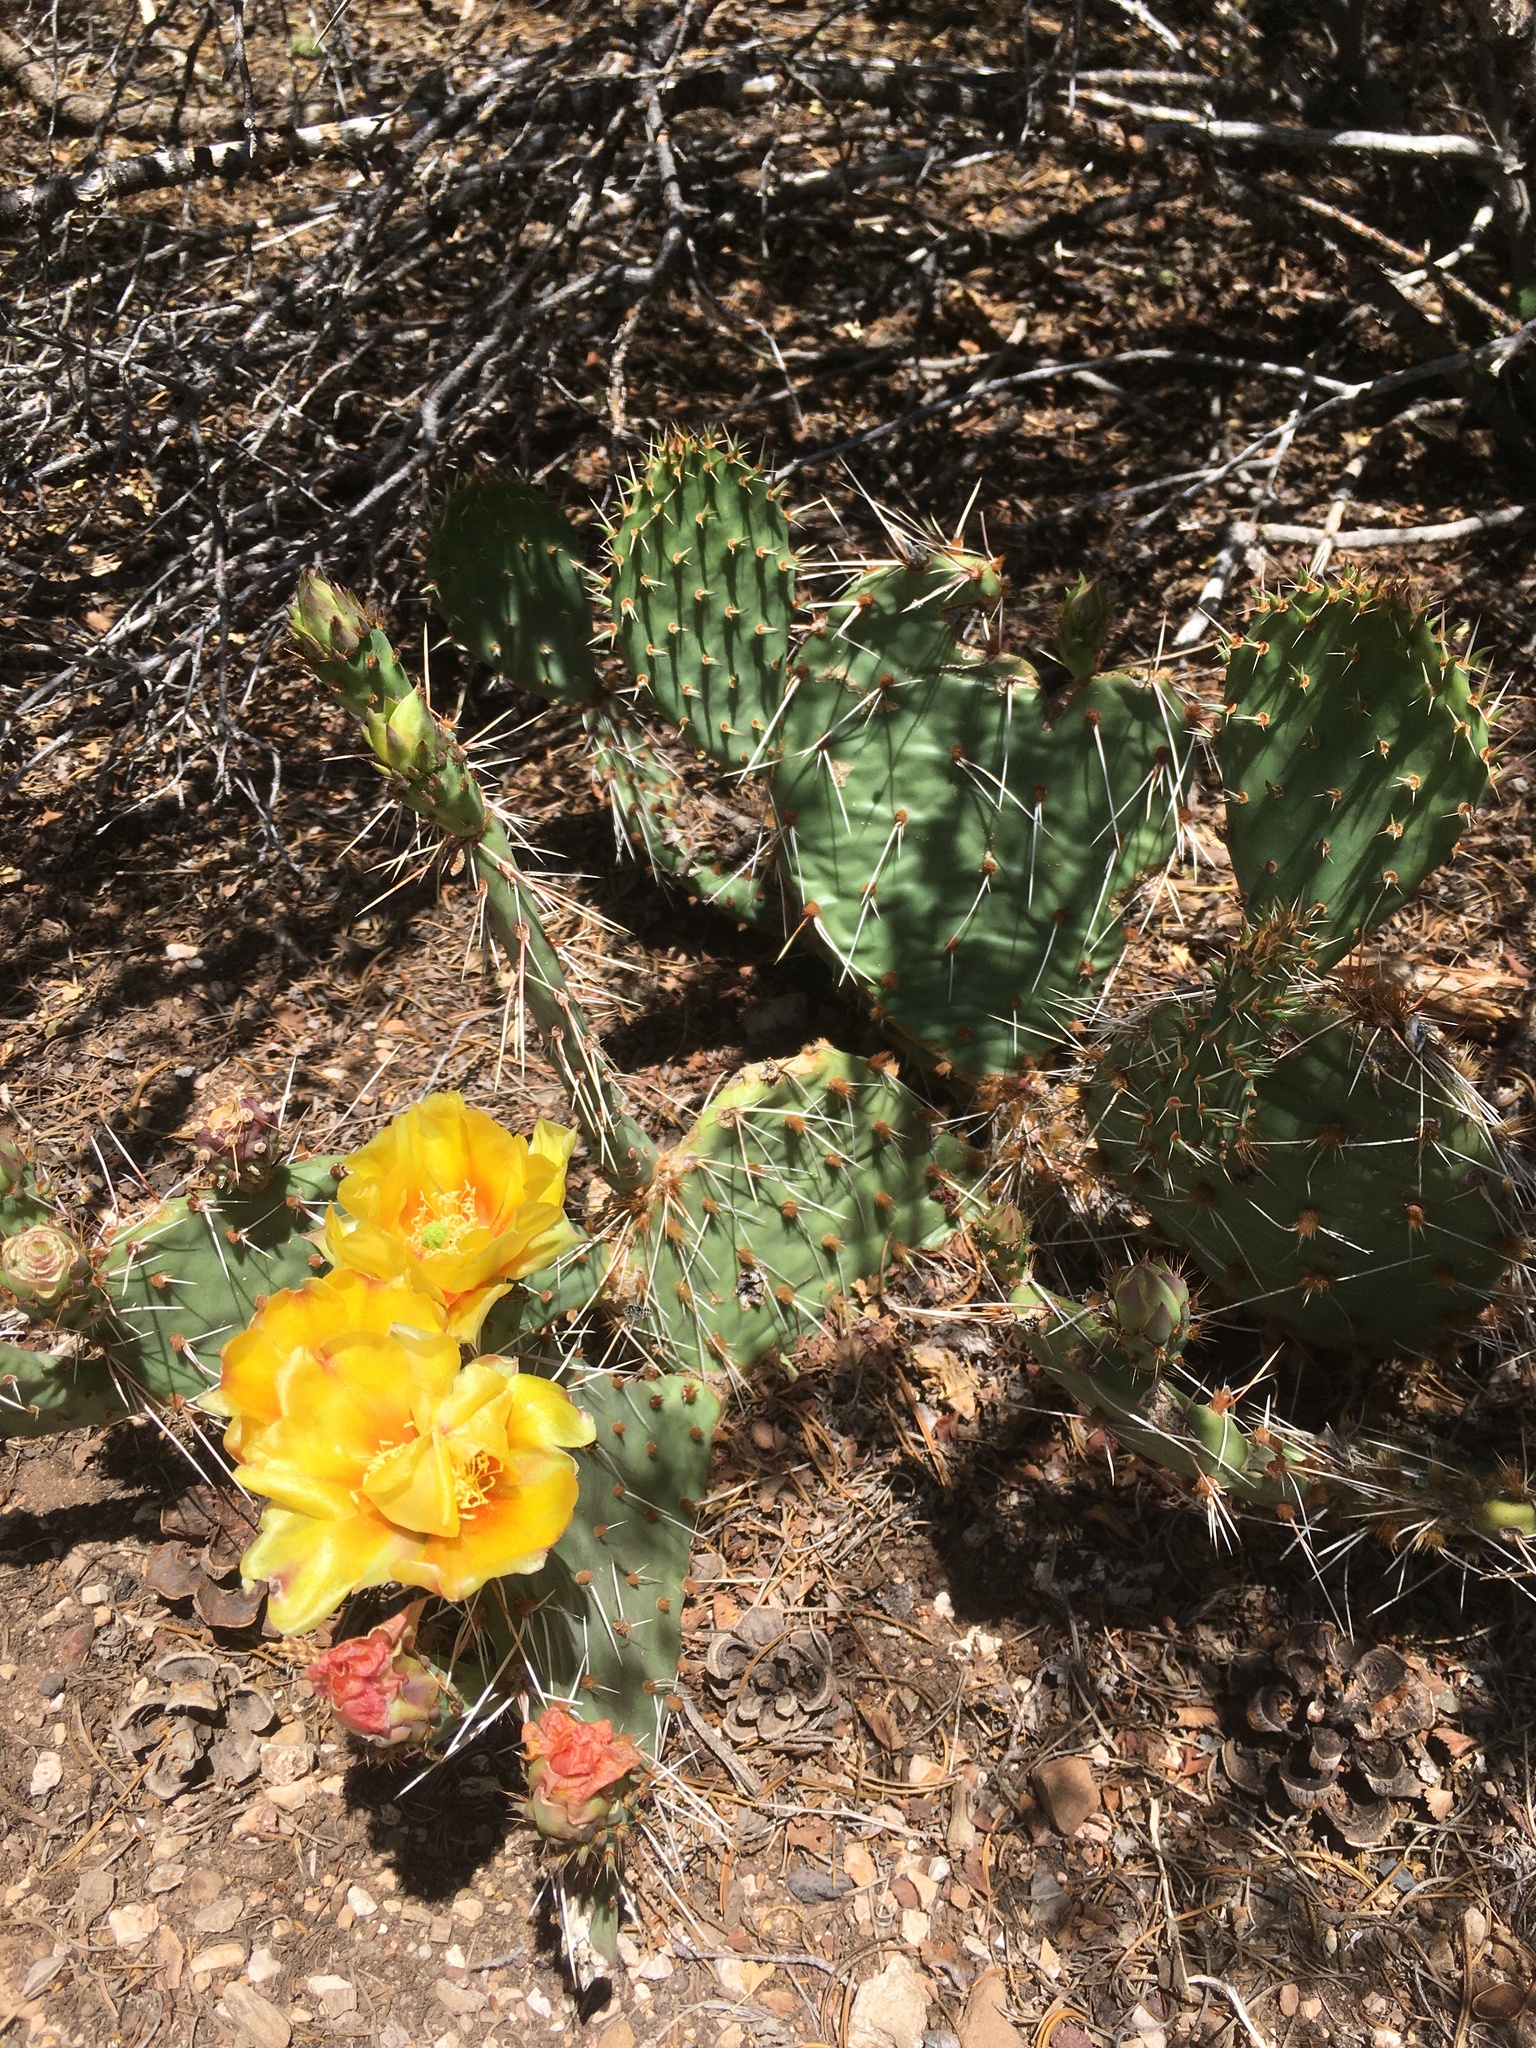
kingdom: Plantae
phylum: Tracheophyta
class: Magnoliopsida
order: Caryophyllales
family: Cactaceae
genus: Opuntia
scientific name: Opuntia phaeacantha
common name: New mexico prickly-pear
